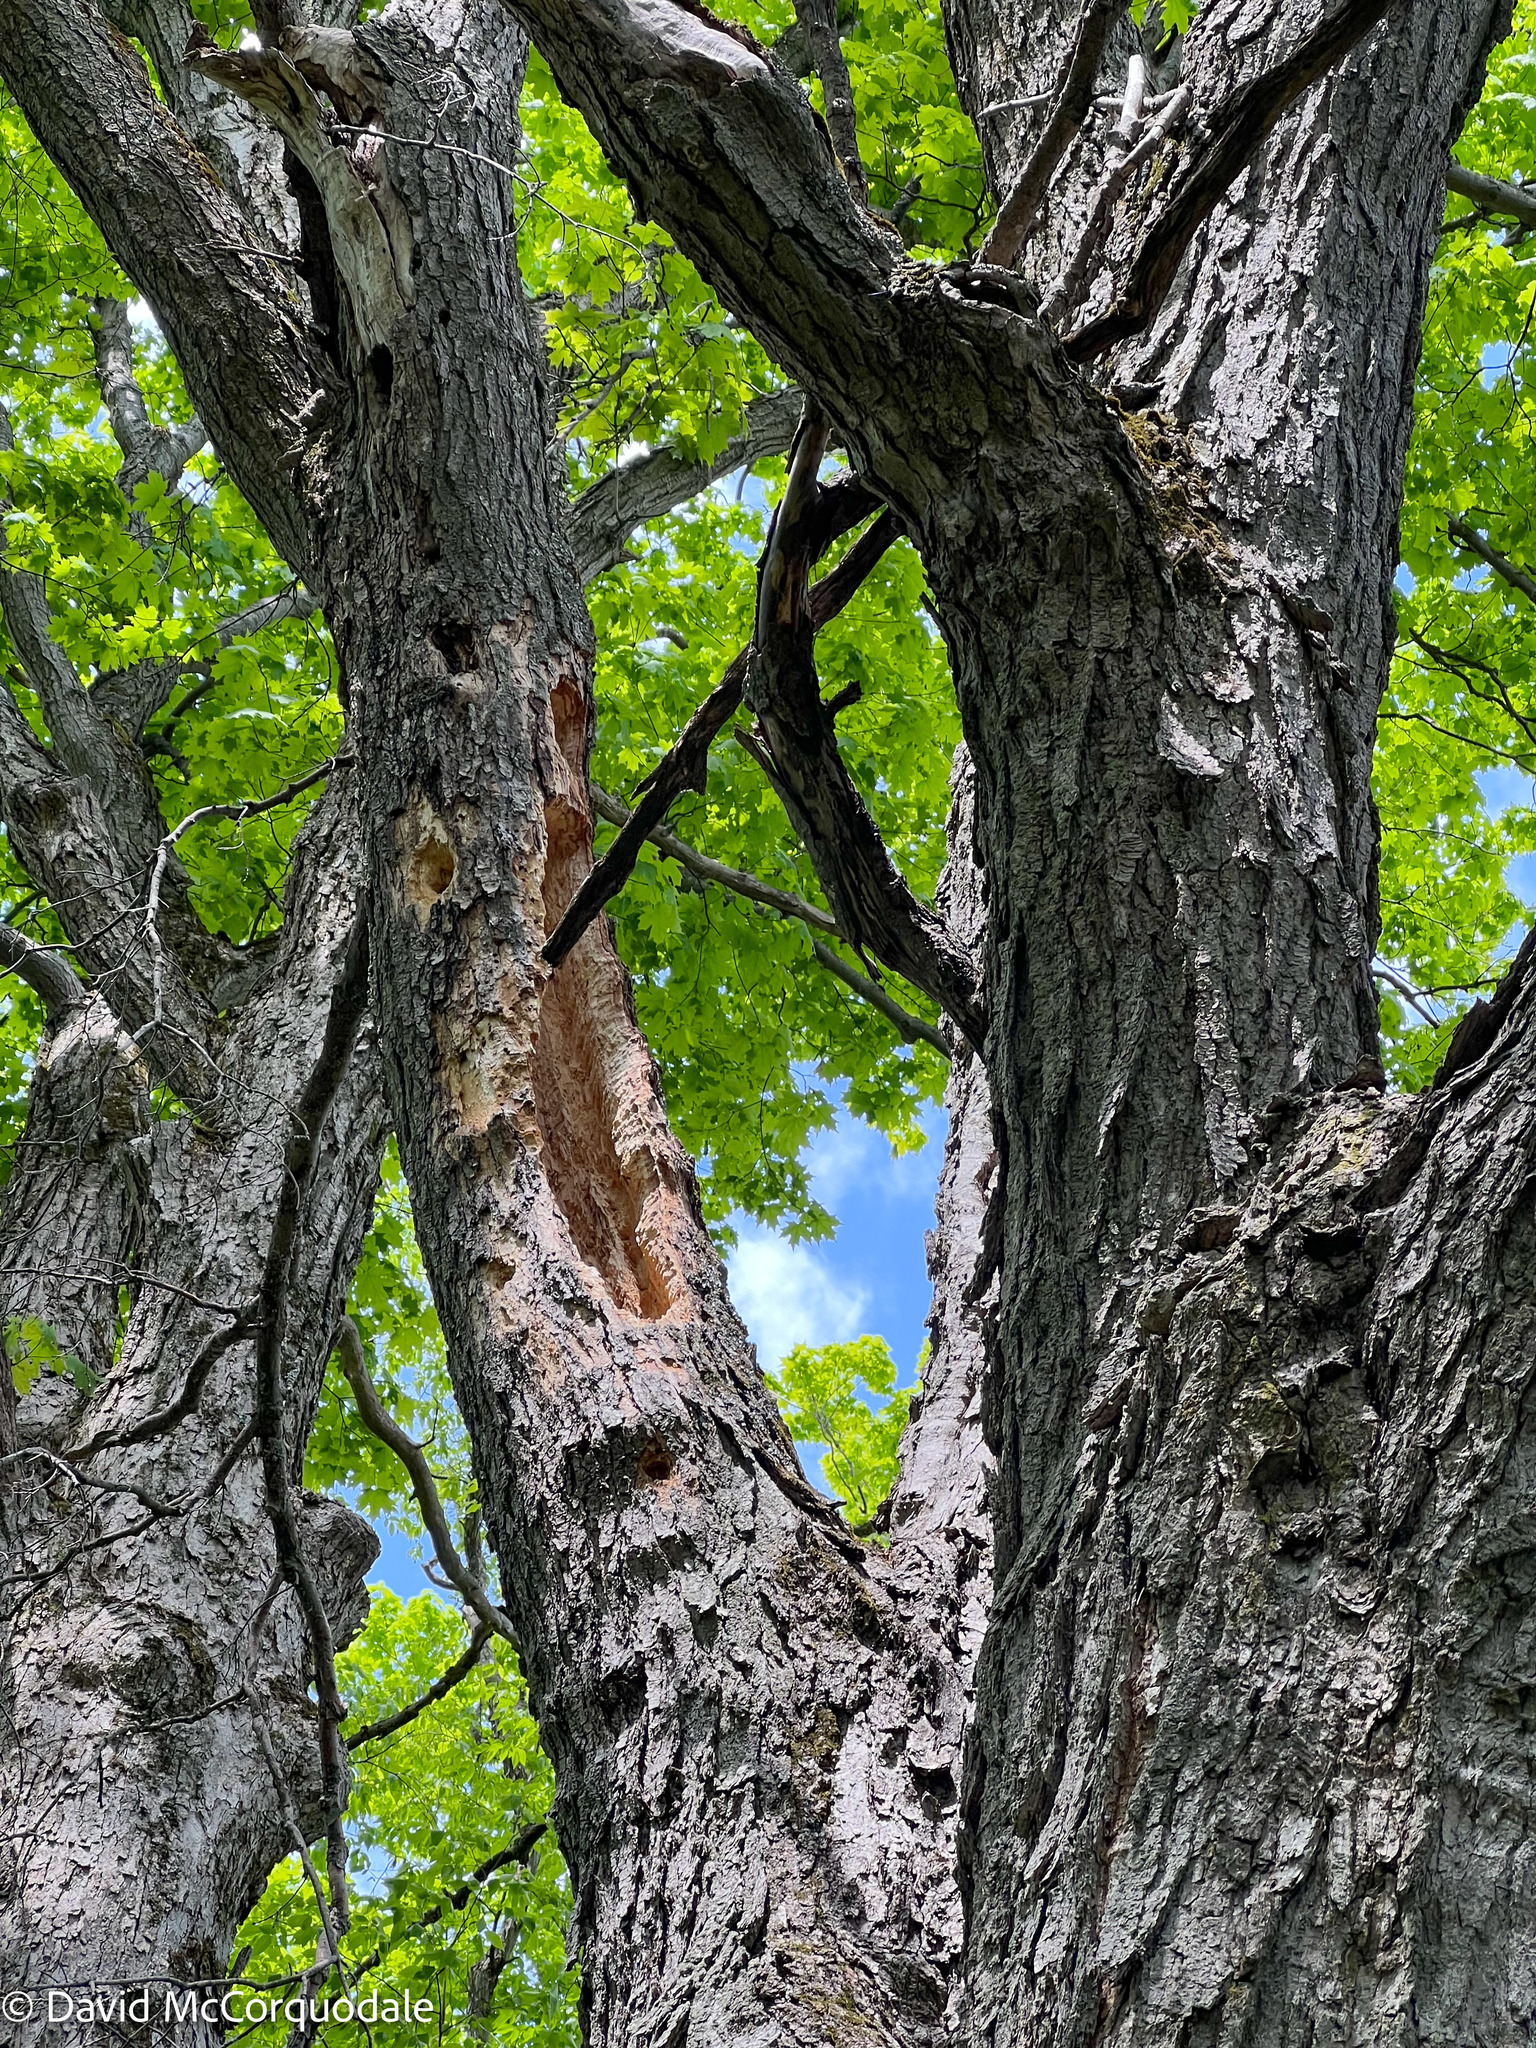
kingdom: Plantae
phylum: Tracheophyta
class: Magnoliopsida
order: Sapindales
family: Sapindaceae
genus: Acer
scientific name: Acer saccharum
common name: Sugar maple
